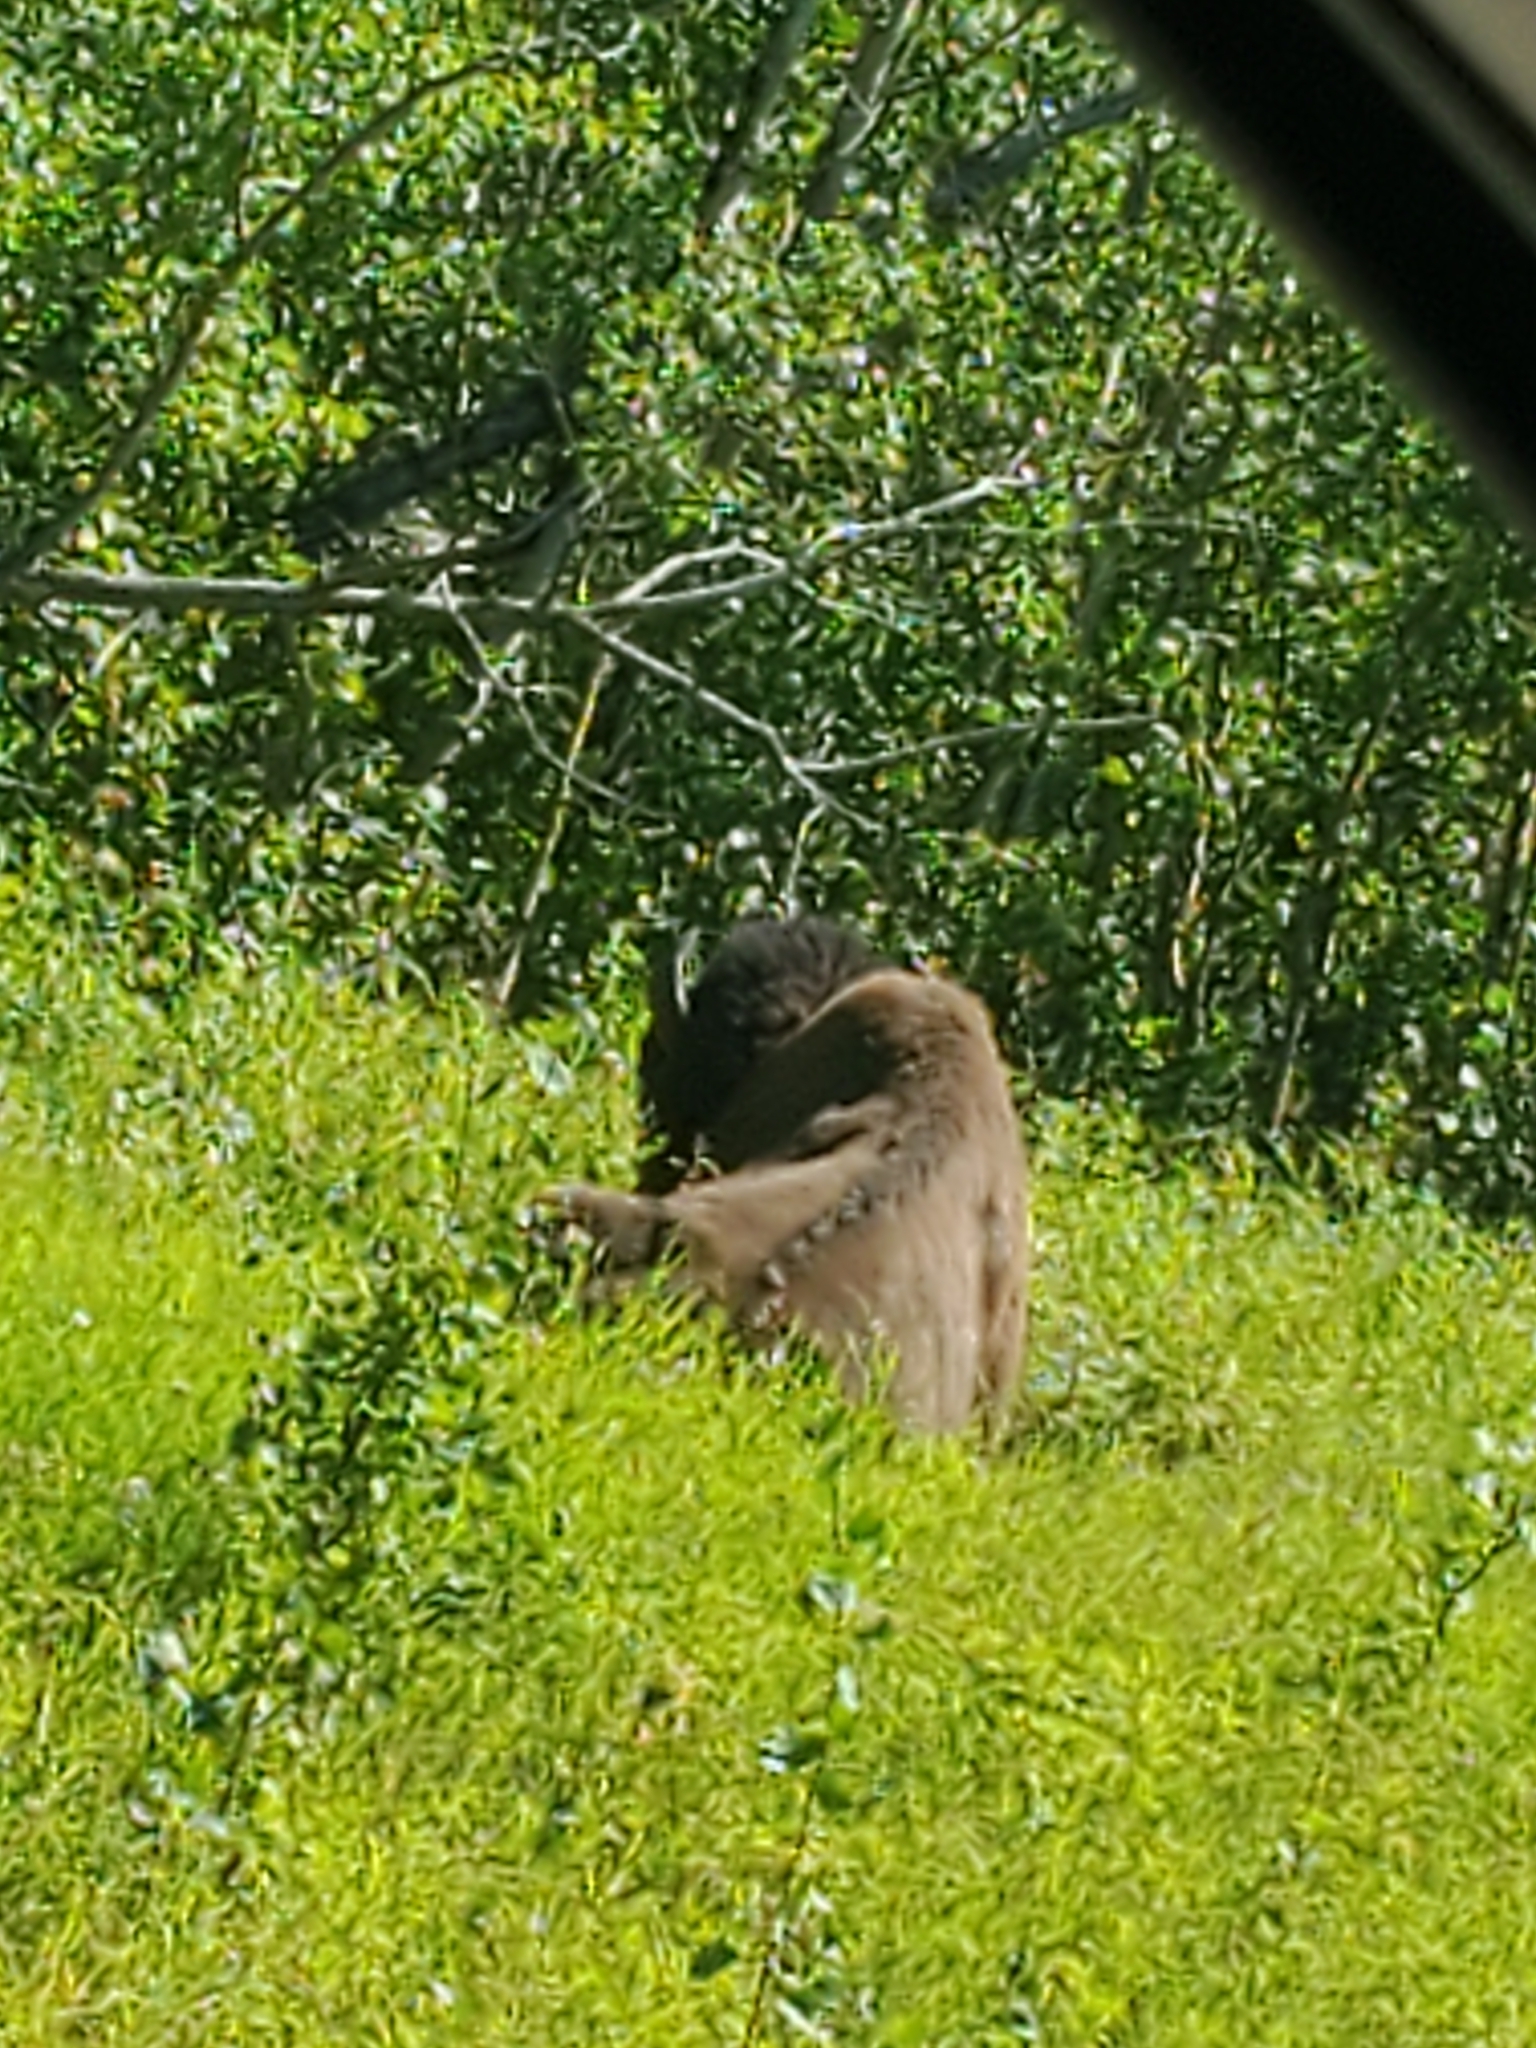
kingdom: Animalia
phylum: Chordata
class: Mammalia
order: Artiodactyla
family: Bovidae
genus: Bison
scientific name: Bison bison
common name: American bison
